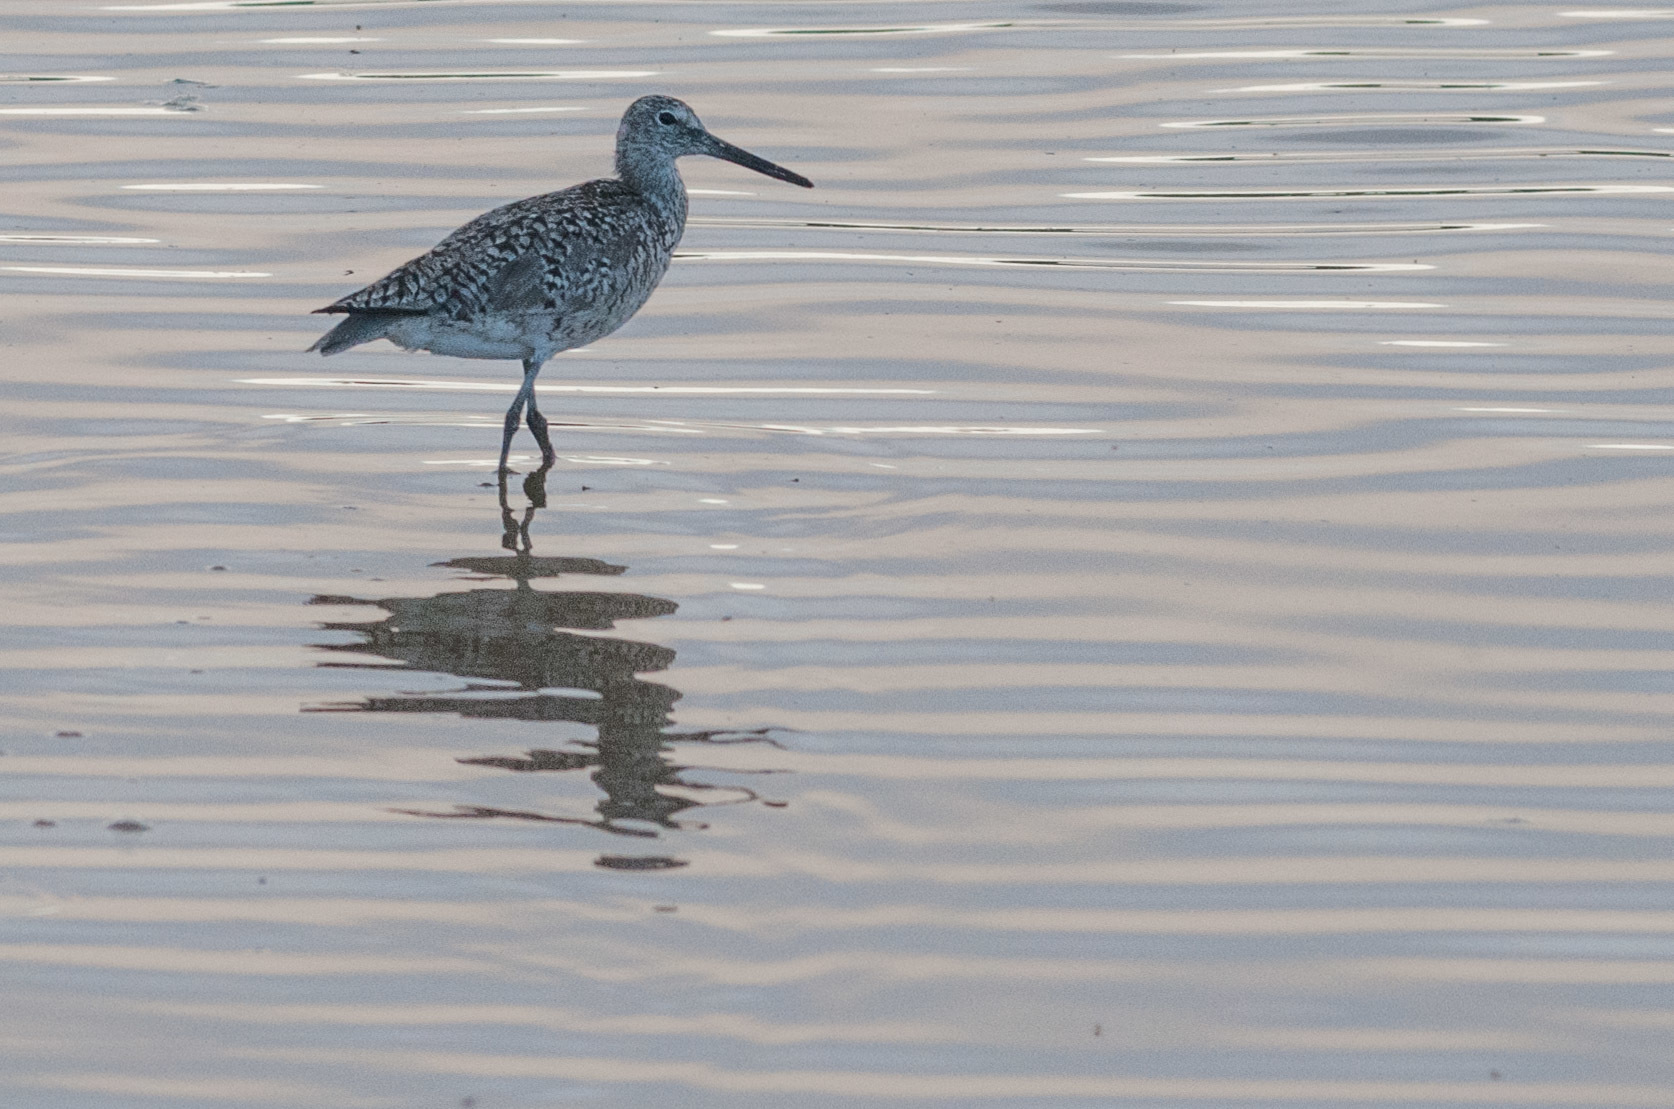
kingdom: Animalia
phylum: Chordata
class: Aves
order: Charadriiformes
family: Scolopacidae
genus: Tringa
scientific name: Tringa semipalmata
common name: Willet
